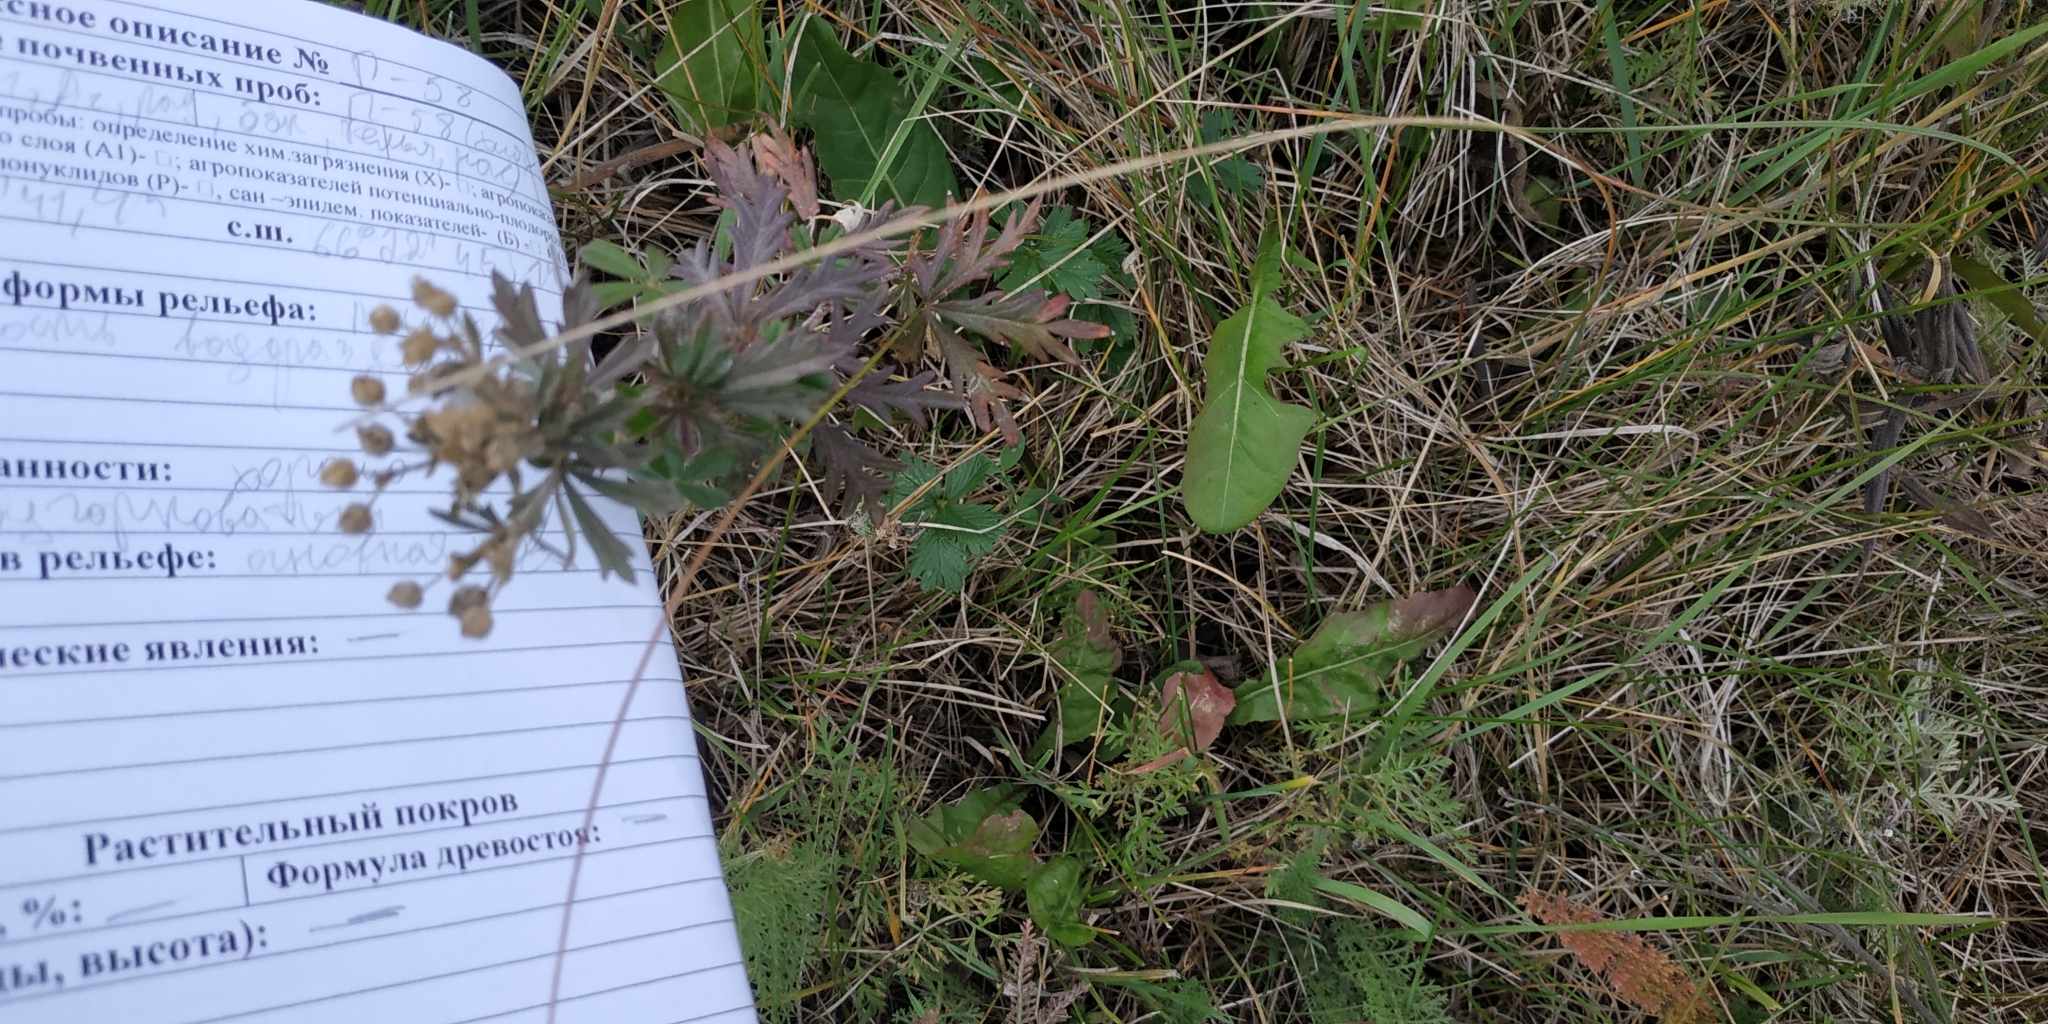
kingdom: Plantae
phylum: Tracheophyta
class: Magnoliopsida
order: Rosales
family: Rosaceae
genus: Potentilla
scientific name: Potentilla argentea
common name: Hoary cinquefoil
